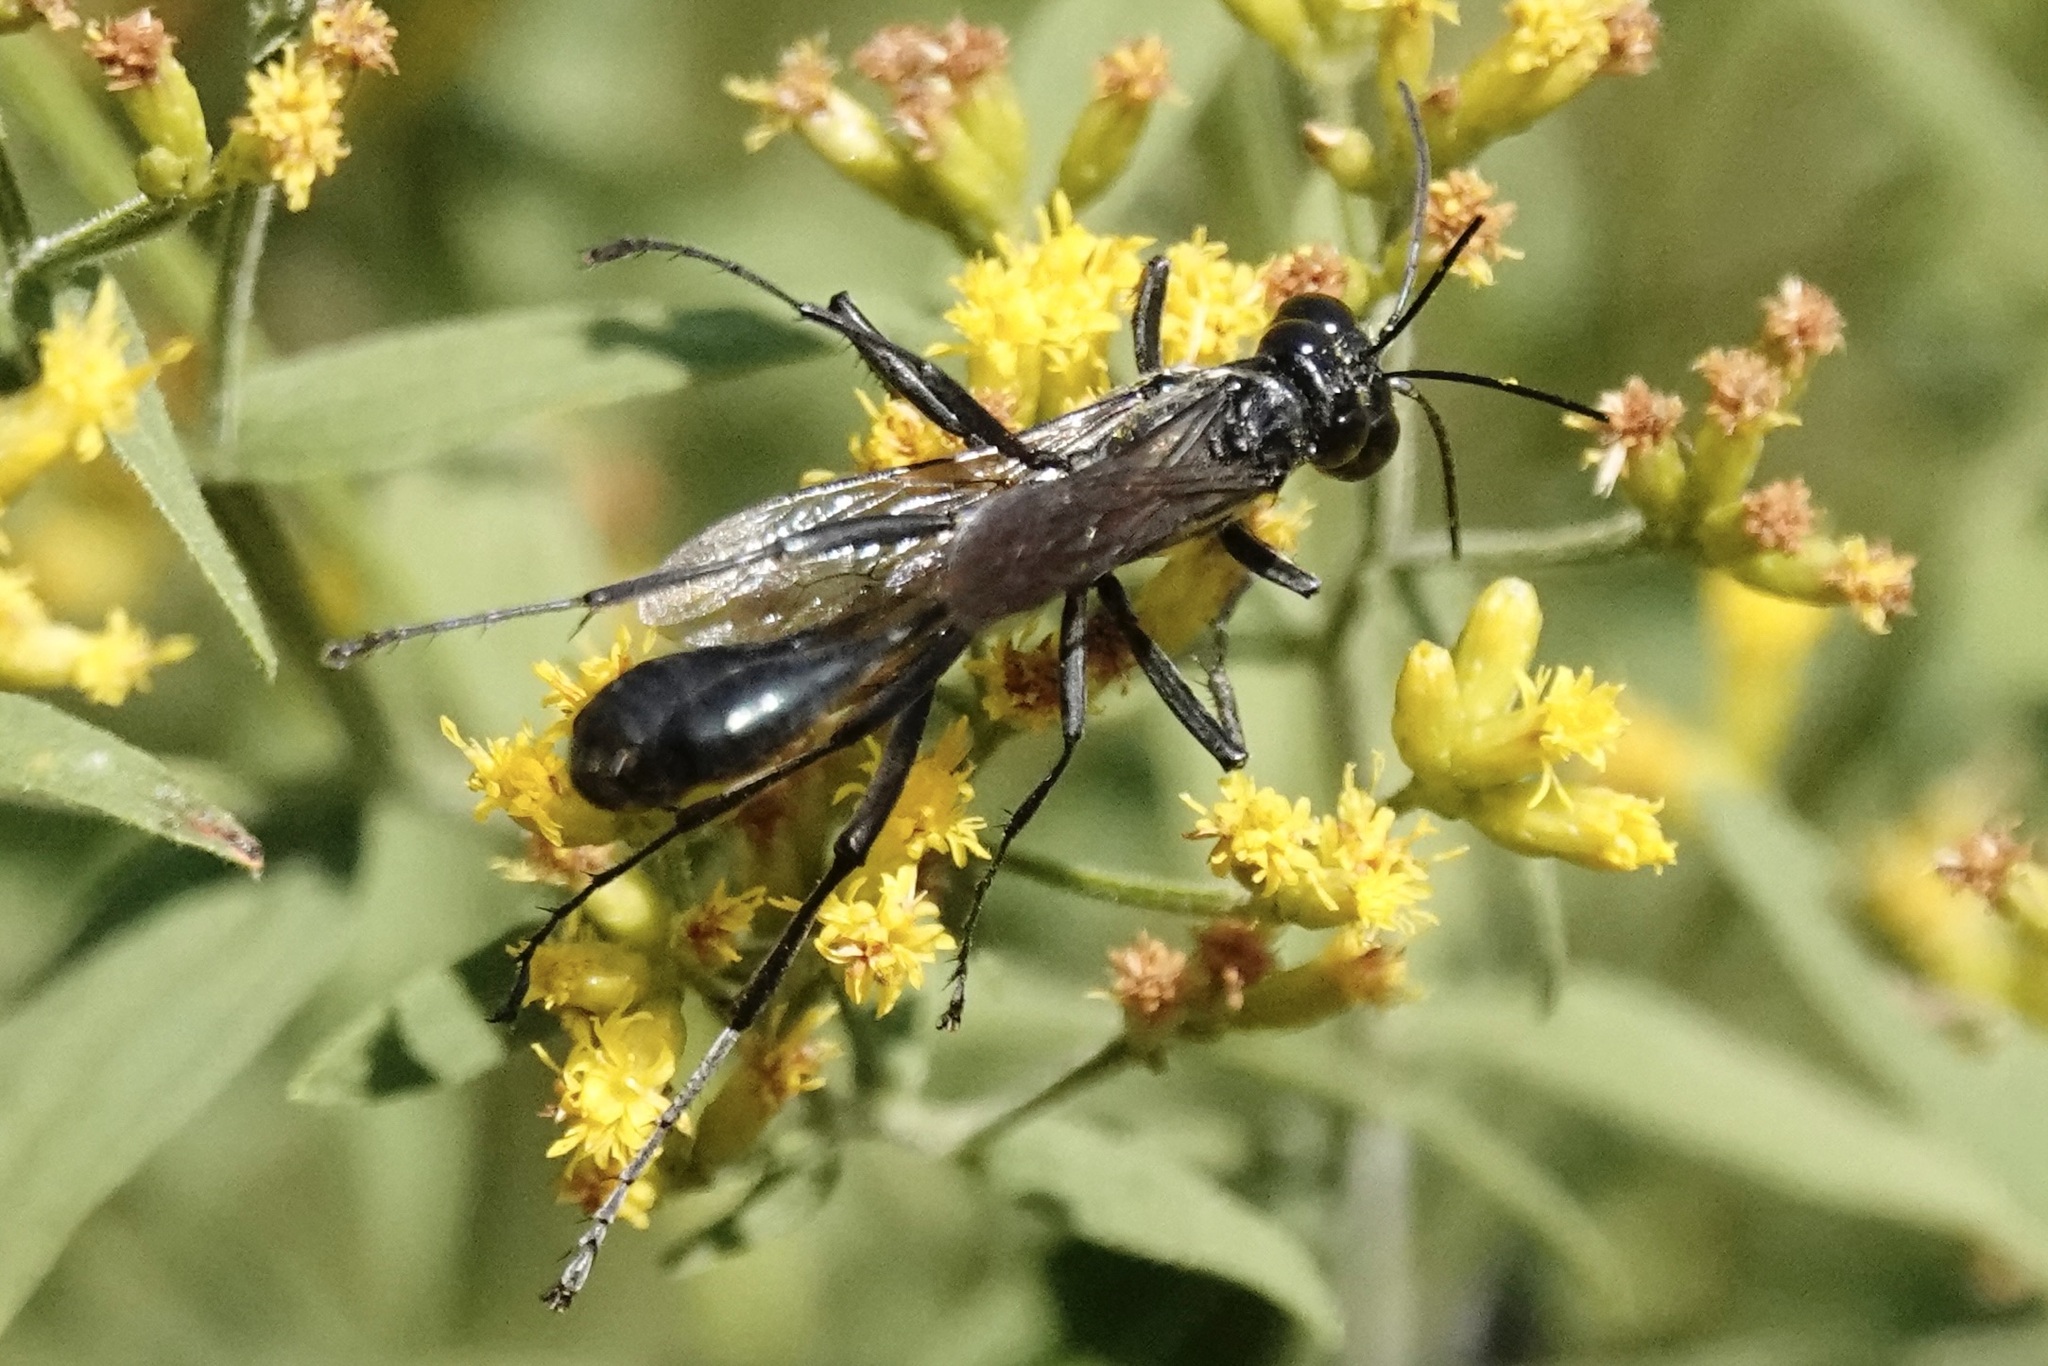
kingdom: Animalia
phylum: Arthropoda
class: Insecta
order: Hymenoptera
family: Sphecidae
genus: Eremnophila
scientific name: Eremnophila aureonotata
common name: Gold-marked thread-waisted wasp
